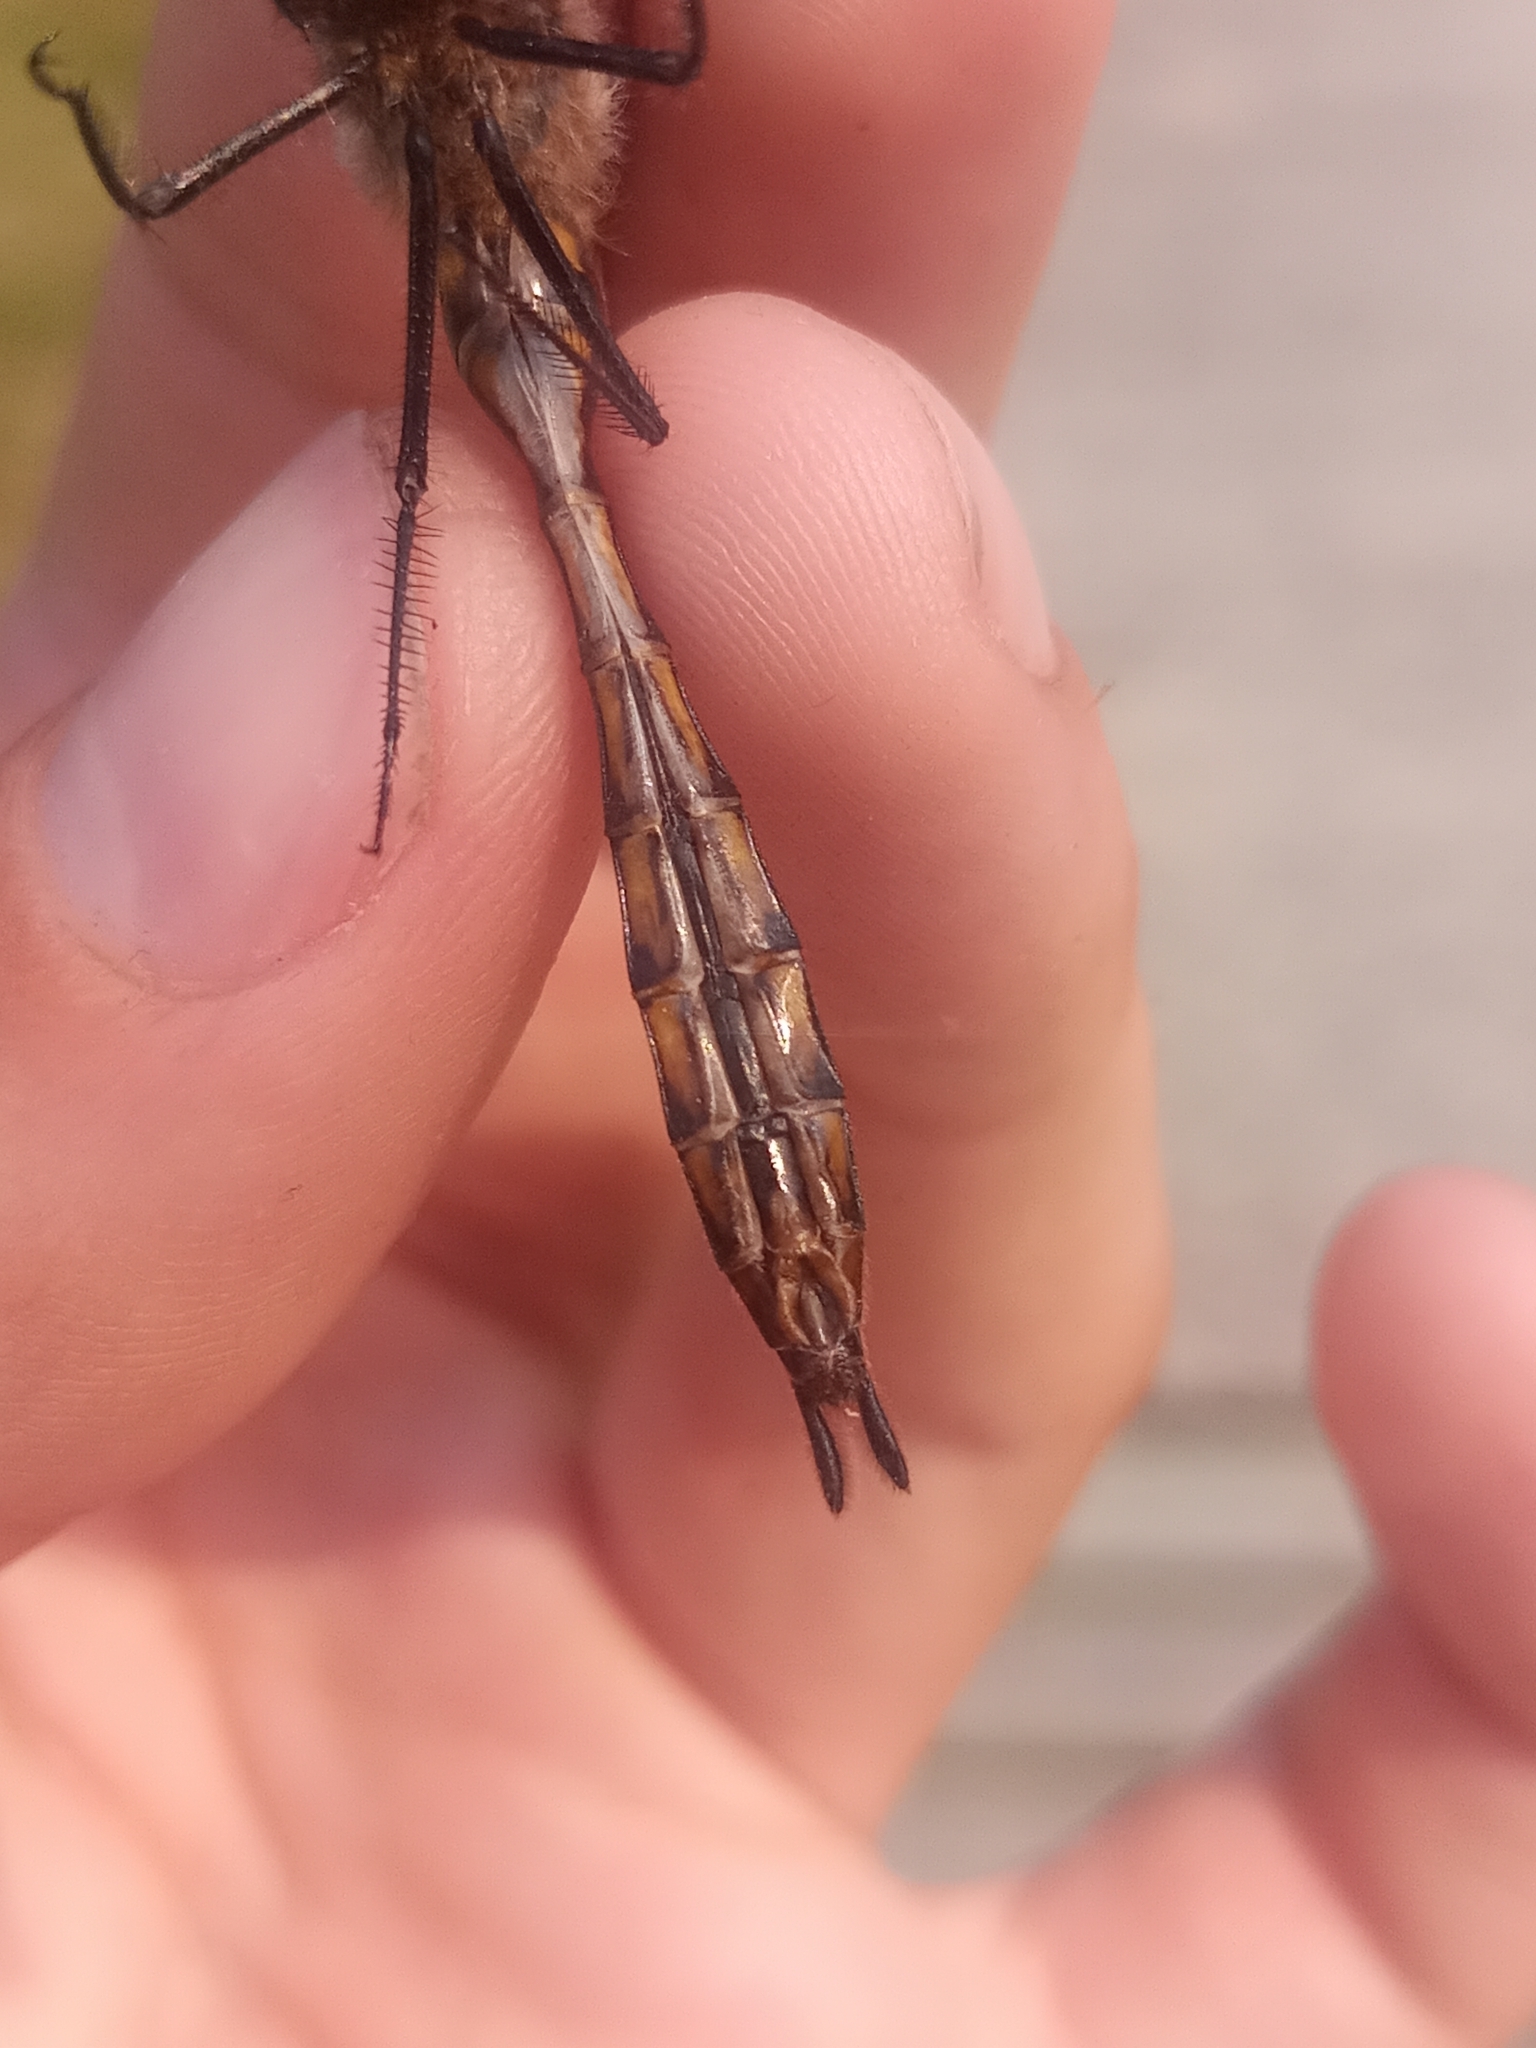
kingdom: Animalia
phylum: Arthropoda
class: Insecta
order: Odonata
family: Corduliidae
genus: Epitheca
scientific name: Epitheca spinigera
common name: Spiny baskettail
